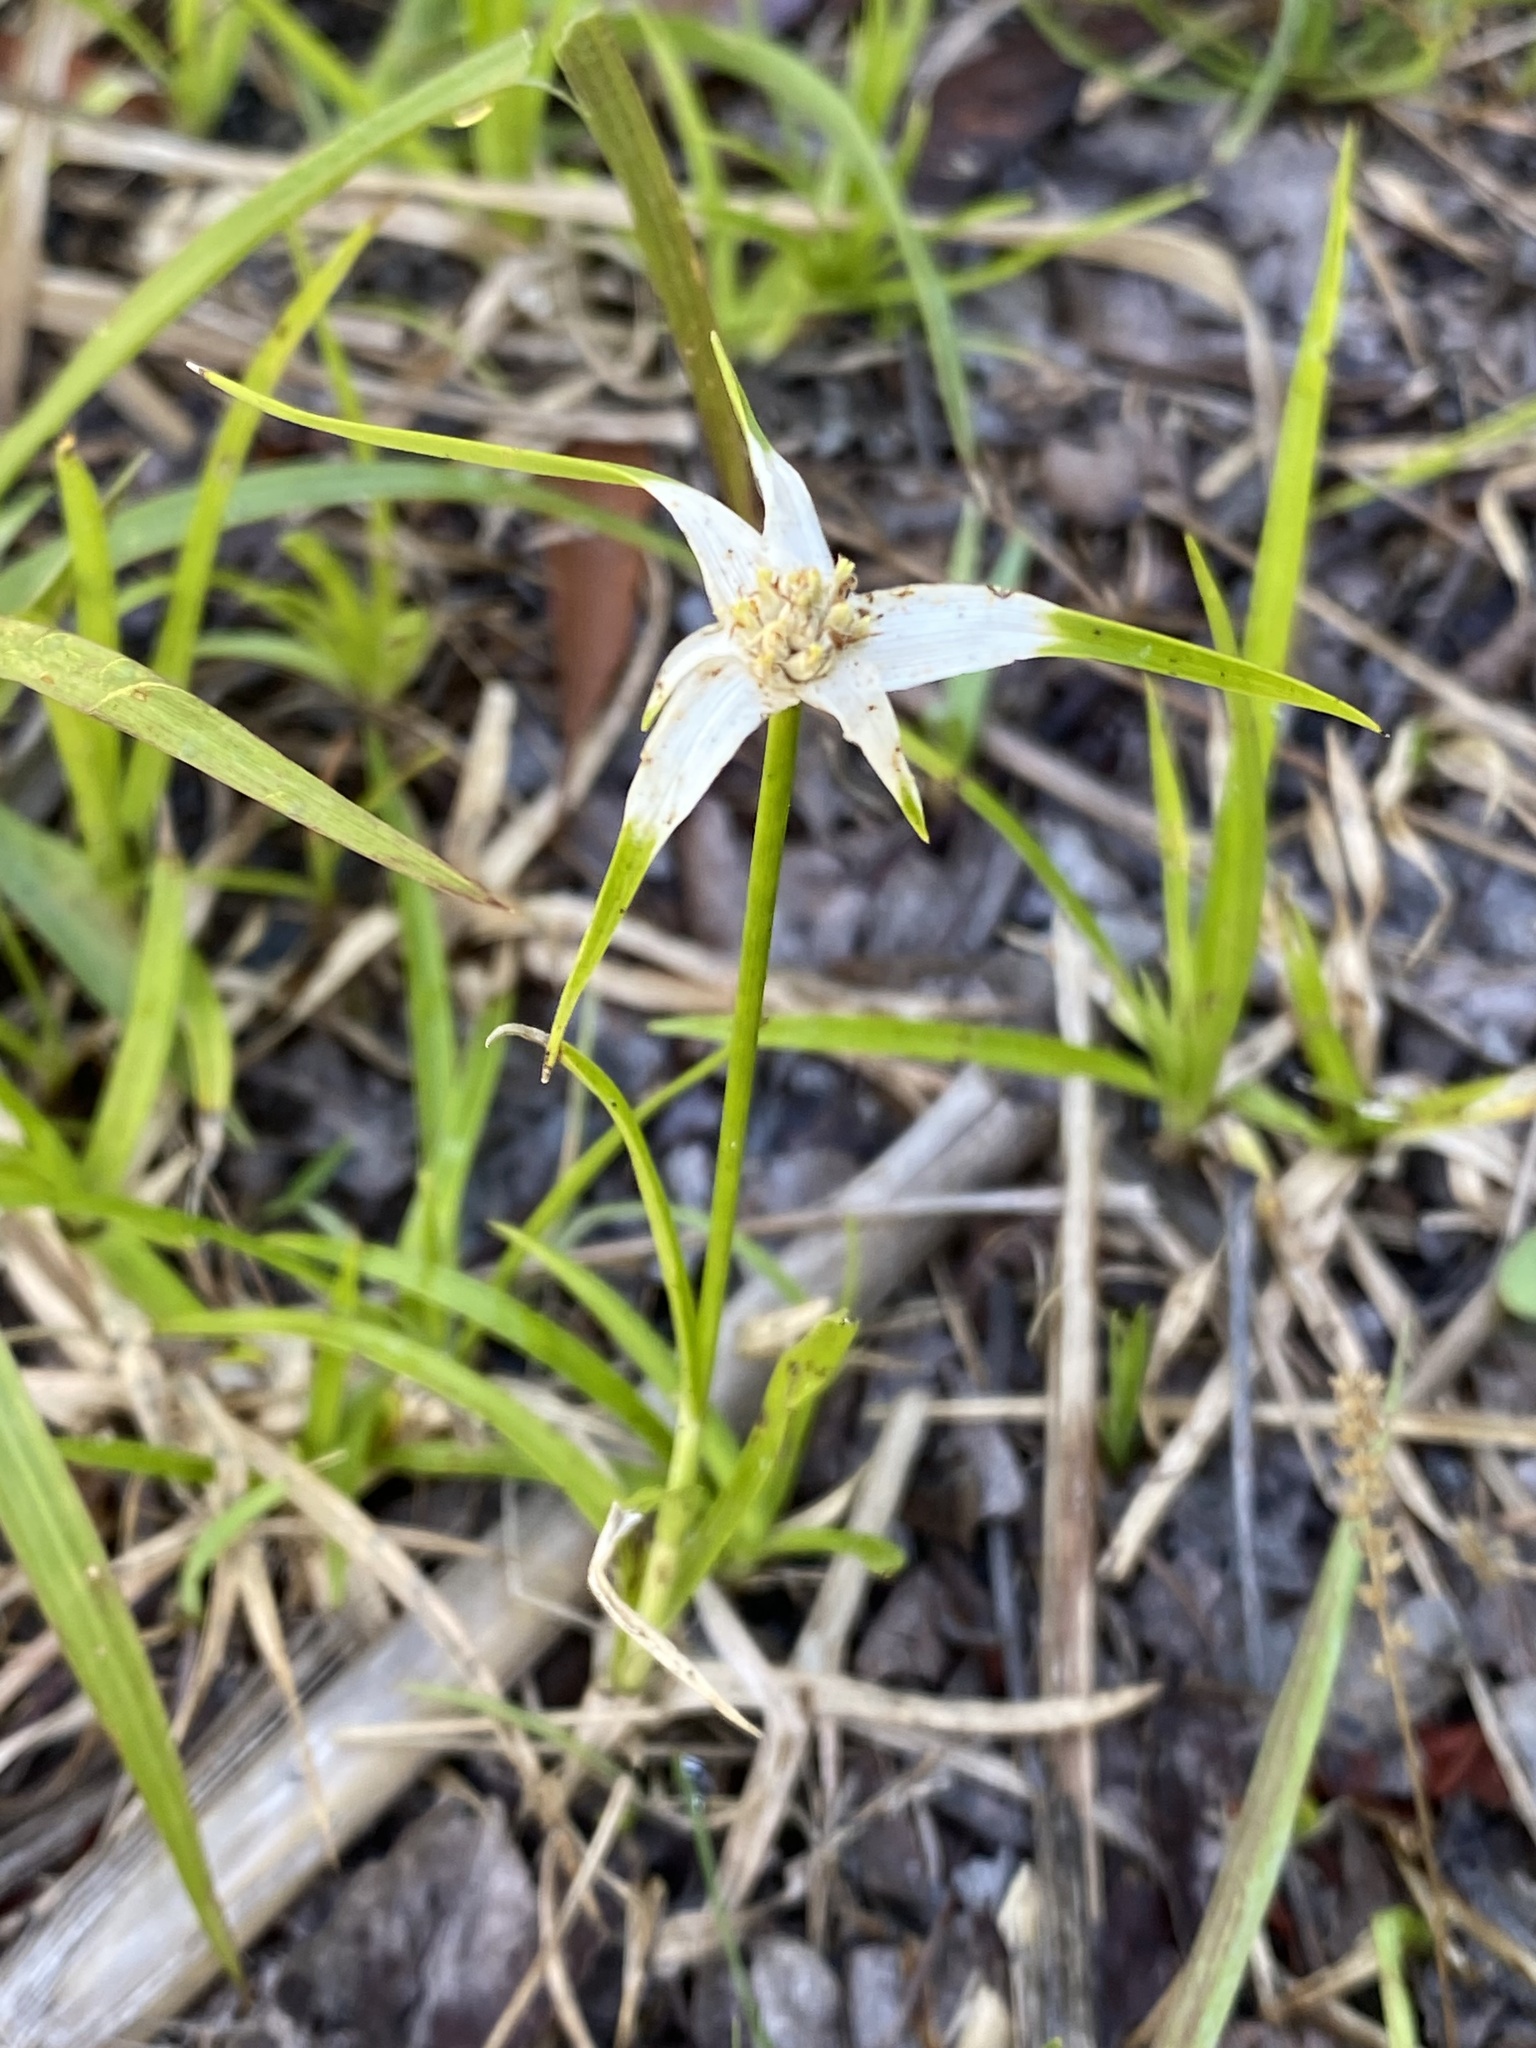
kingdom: Plantae
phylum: Tracheophyta
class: Liliopsida
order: Poales
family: Cyperaceae
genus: Rhynchospora
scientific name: Rhynchospora colorata
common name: Star sedge
